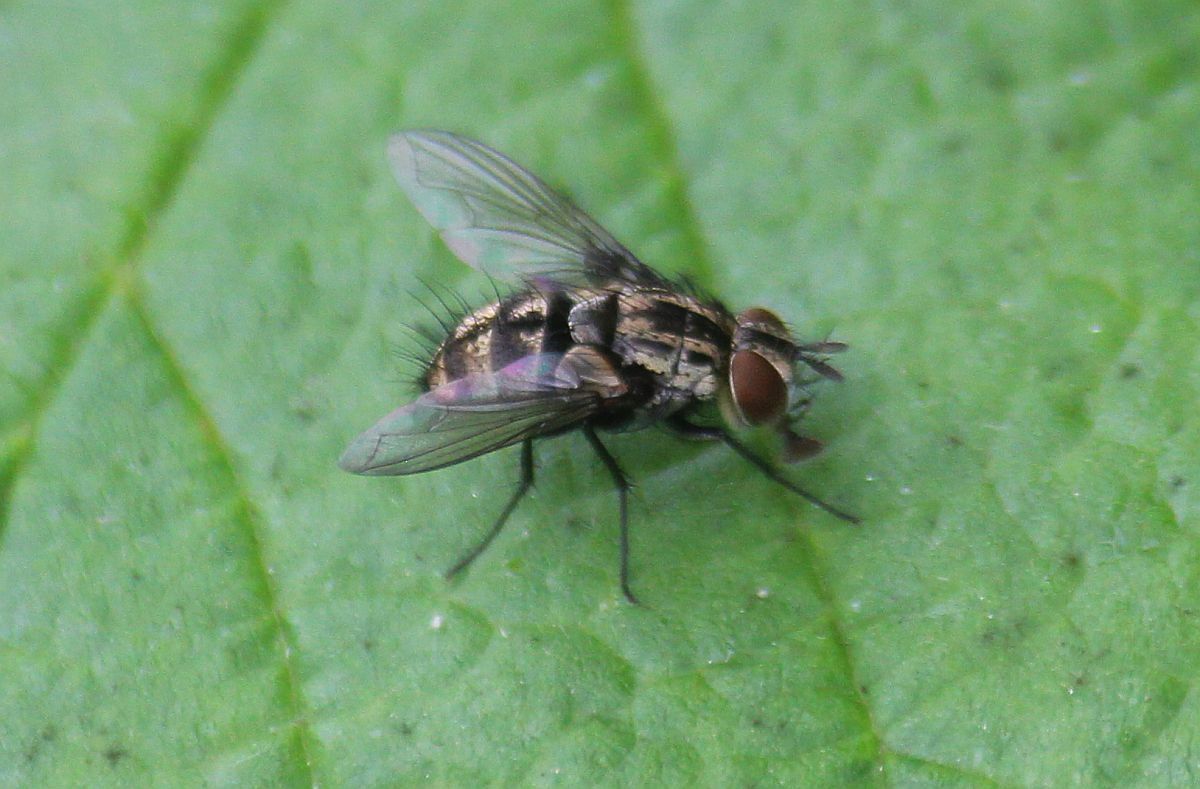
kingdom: Animalia
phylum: Arthropoda
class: Insecta
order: Diptera
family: Tachinidae
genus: Nemorilla
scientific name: Nemorilla floralis
